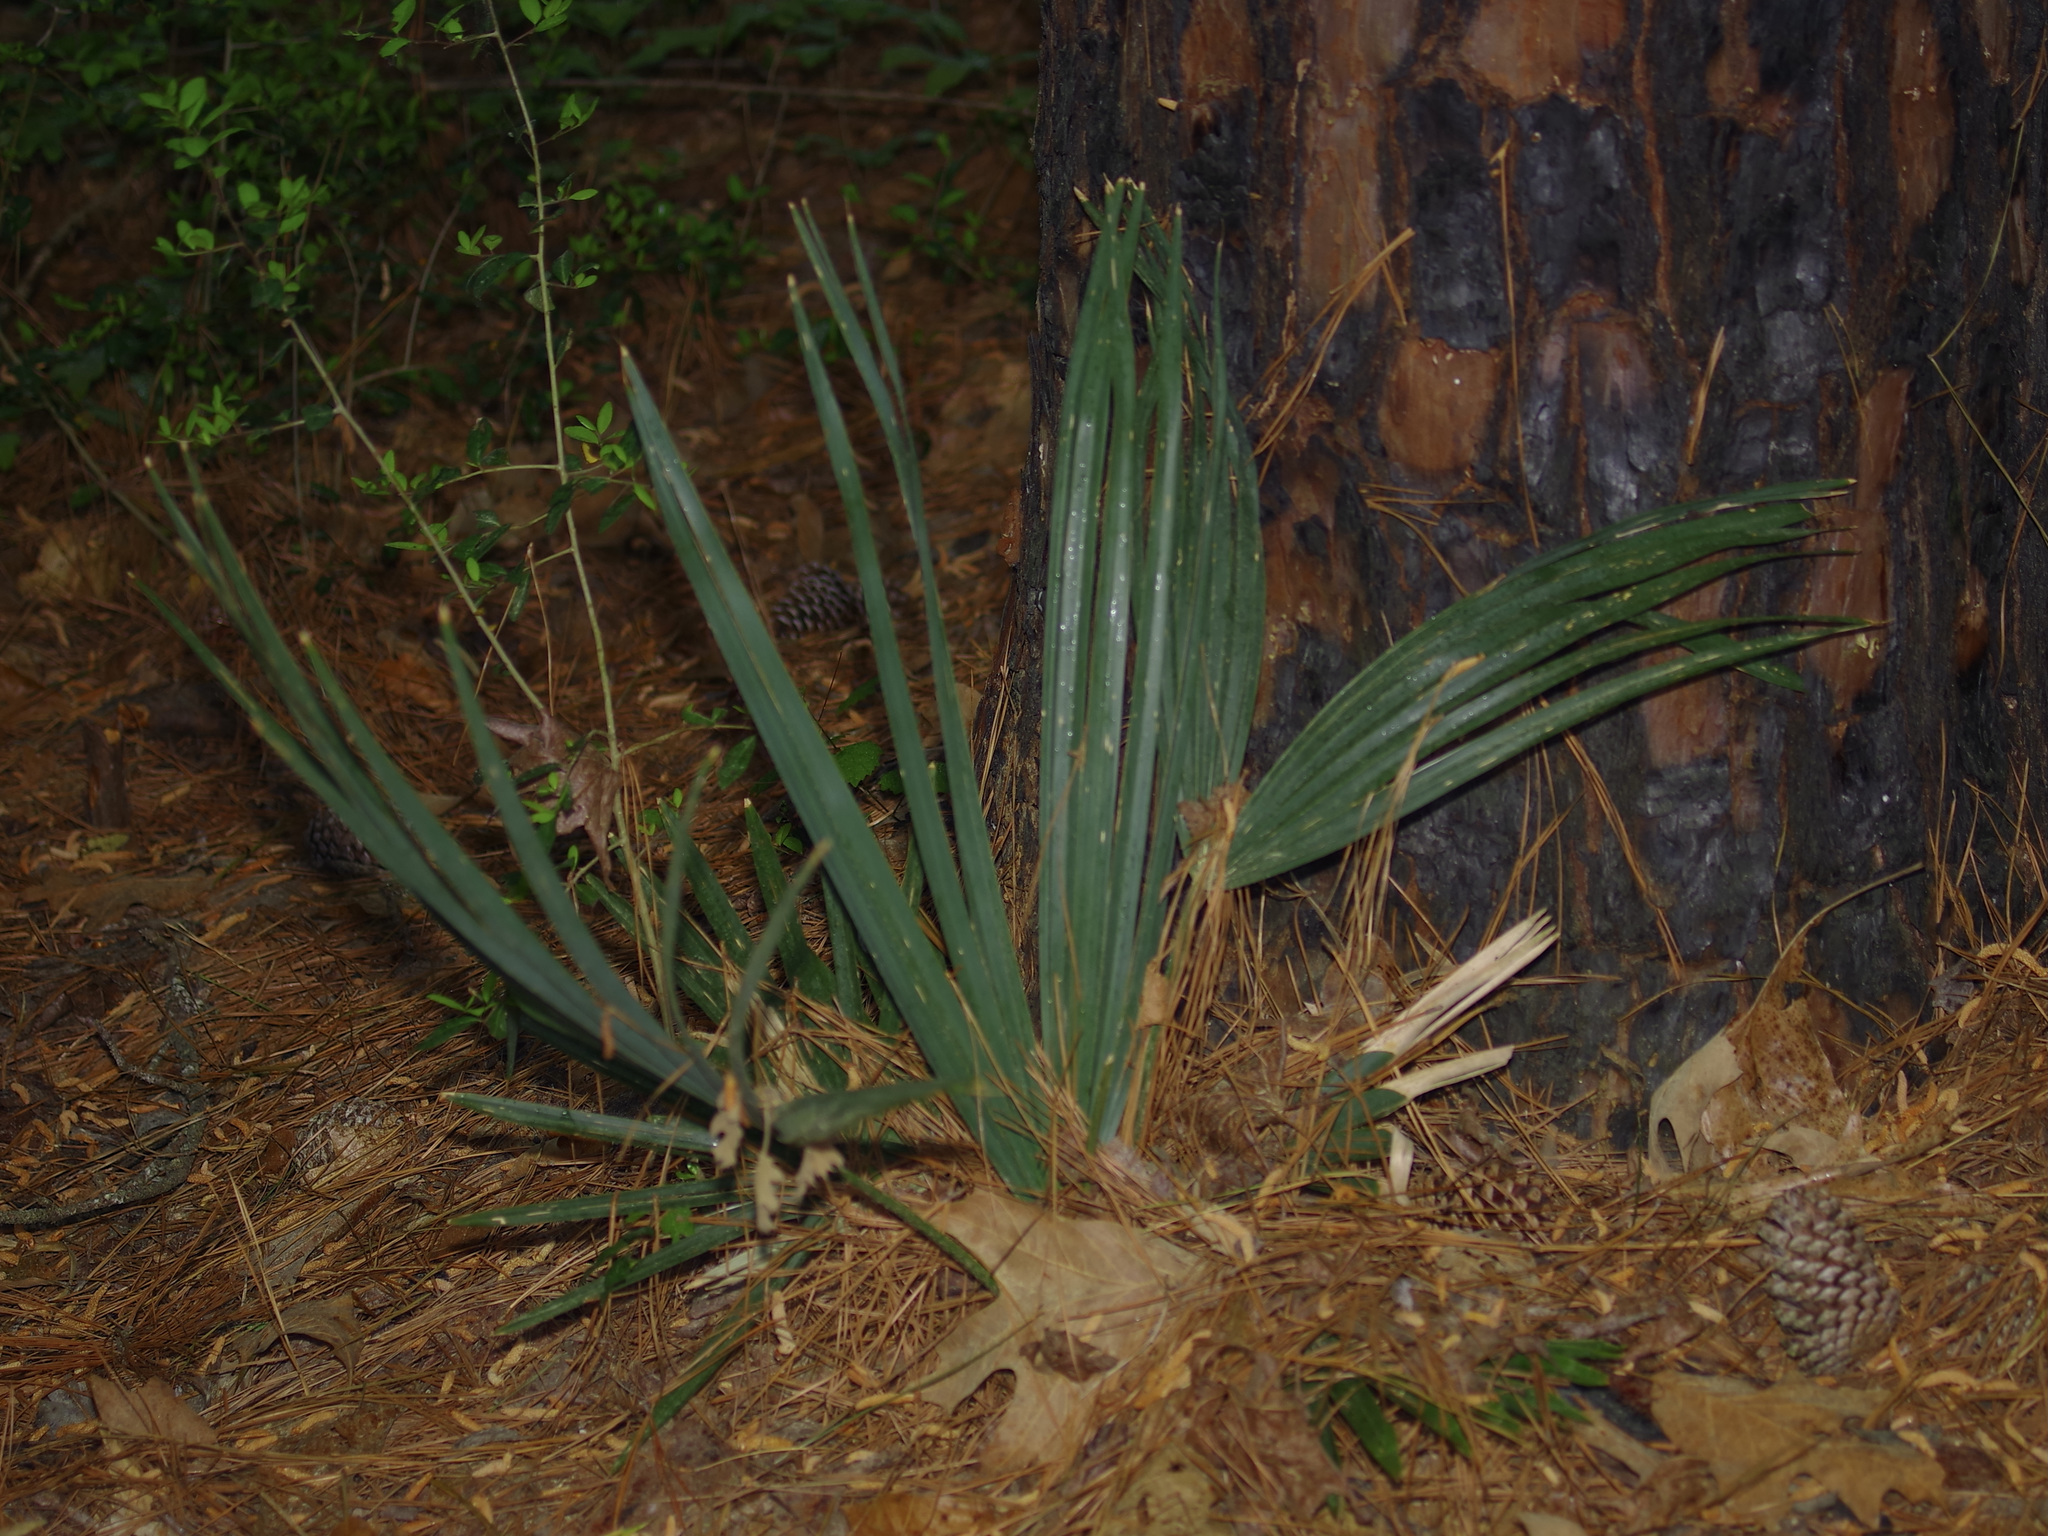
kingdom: Plantae
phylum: Tracheophyta
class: Liliopsida
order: Arecales
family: Arecaceae
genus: Sabal
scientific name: Sabal minor
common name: Dwarf palmetto
